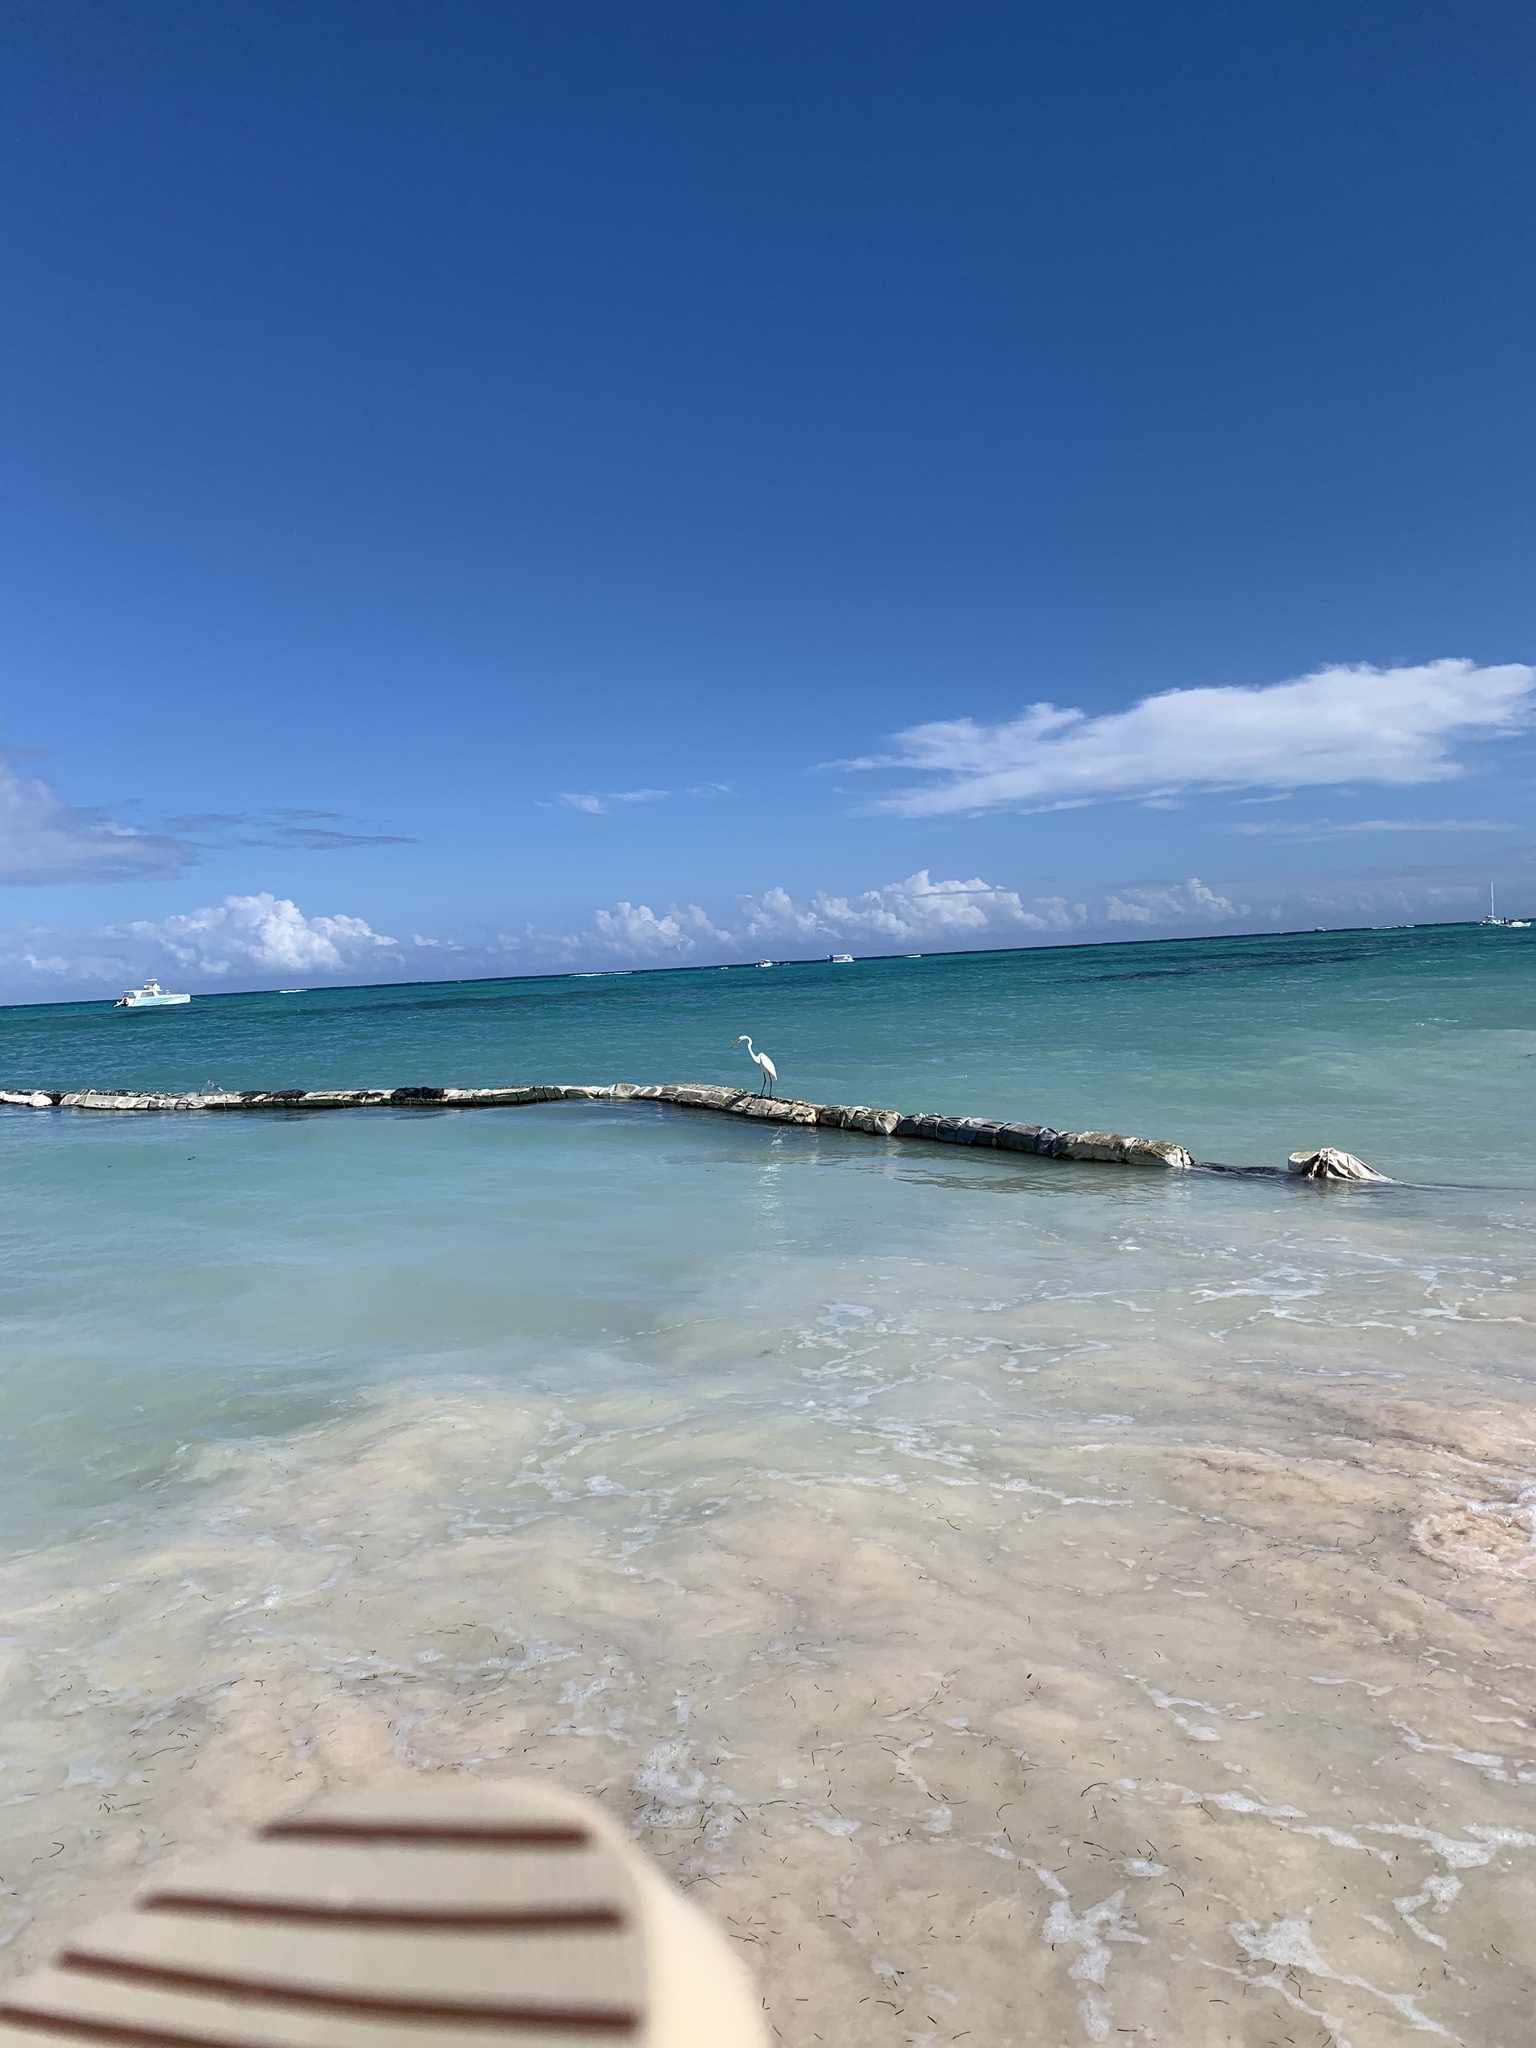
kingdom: Animalia
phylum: Chordata
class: Aves
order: Pelecaniformes
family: Ardeidae
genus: Ardea
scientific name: Ardea alba
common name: Great egret
